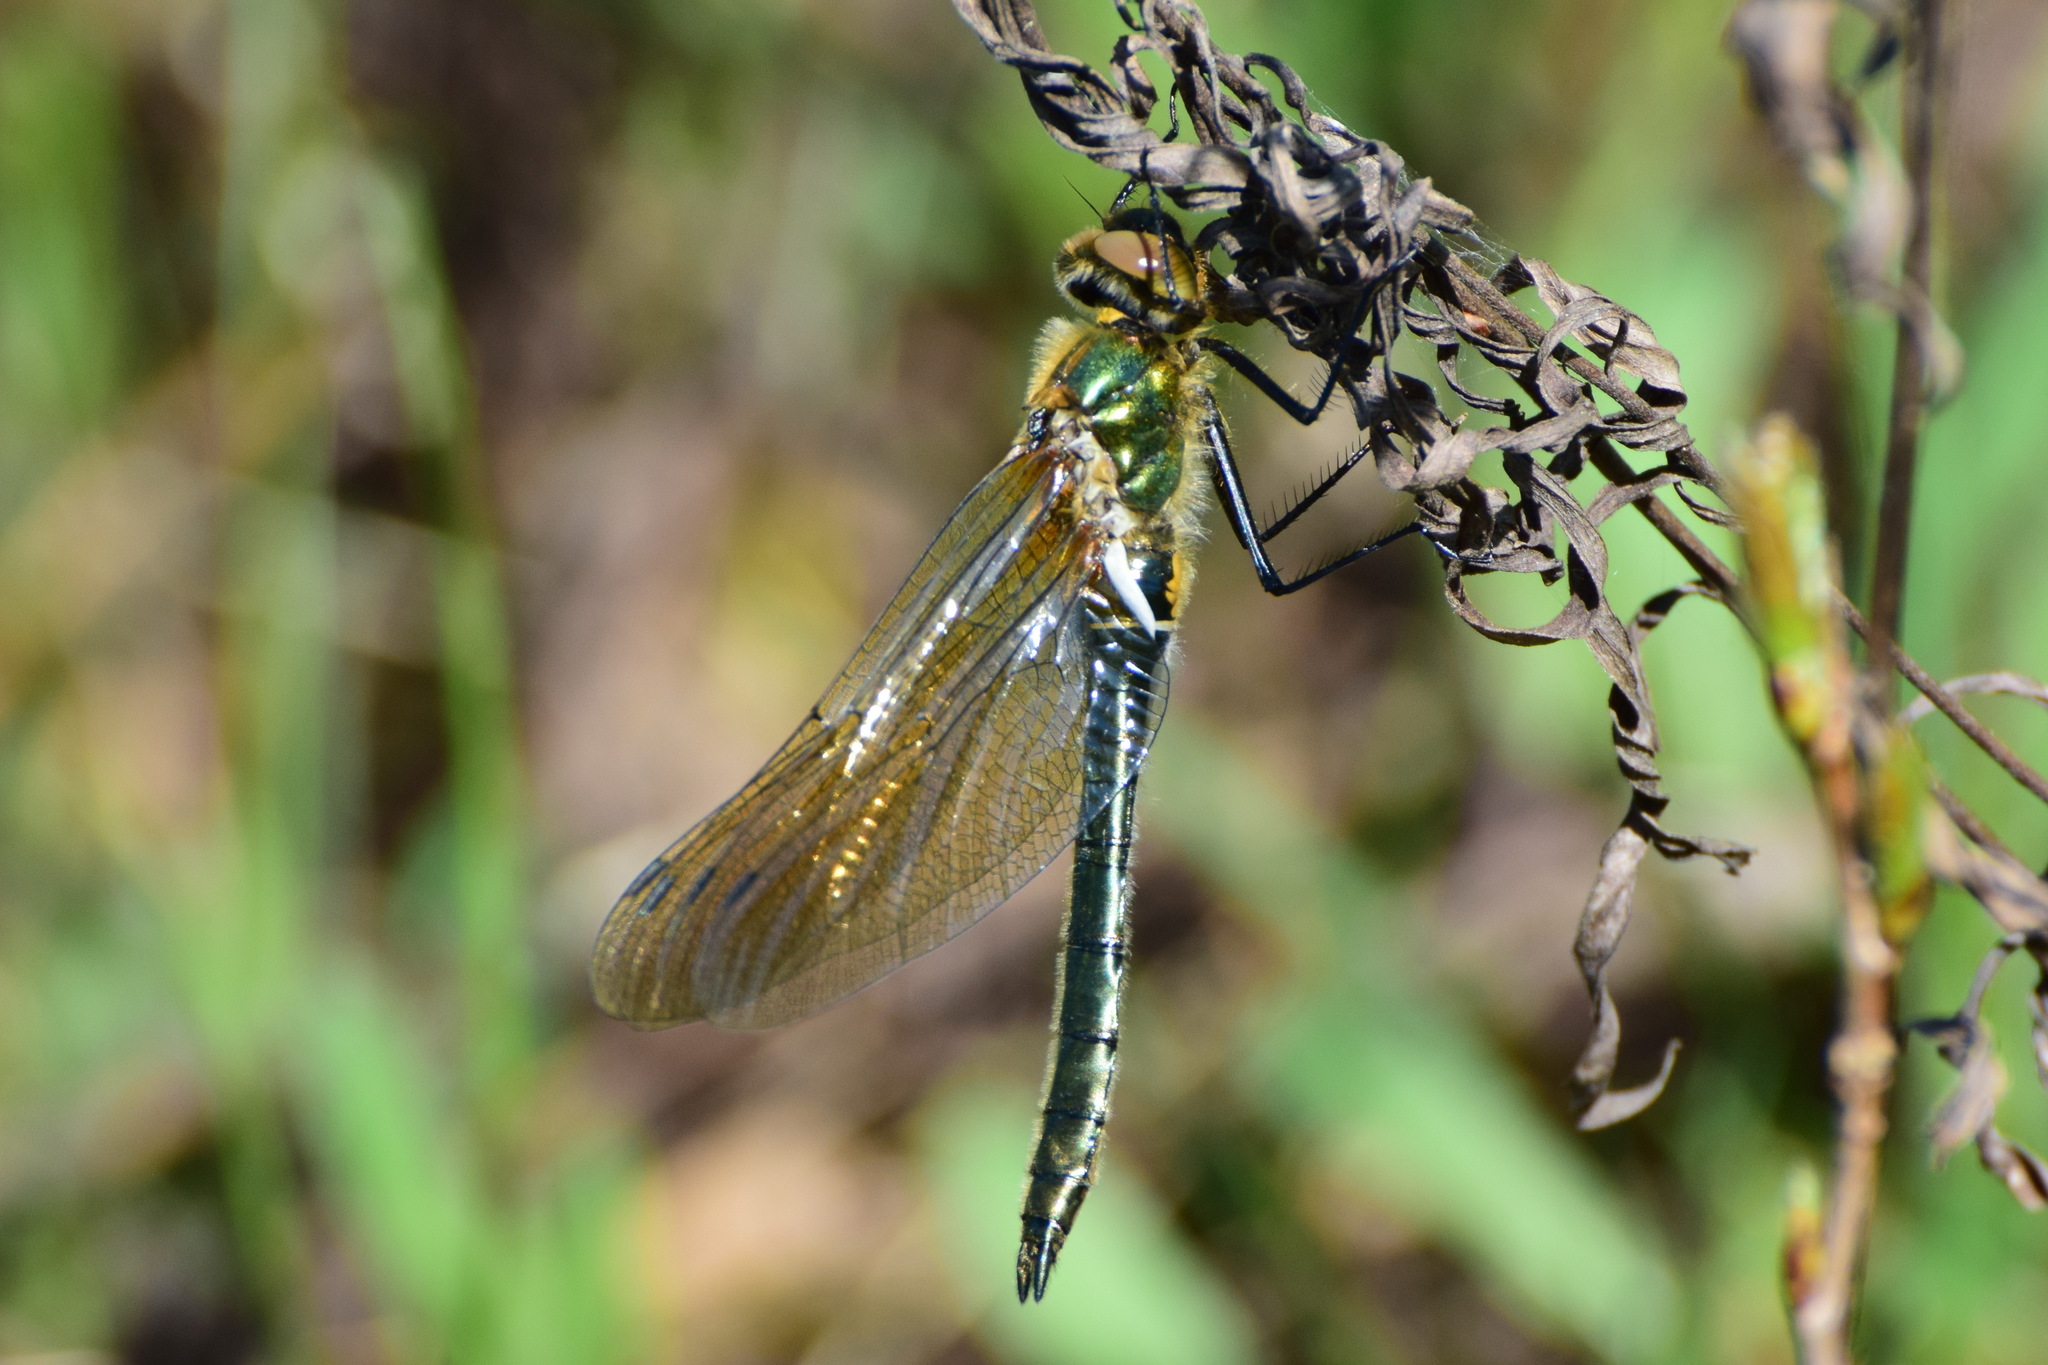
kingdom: Animalia
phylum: Arthropoda
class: Insecta
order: Odonata
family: Corduliidae
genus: Cordulia
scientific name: Cordulia aenea
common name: Downy emerald
